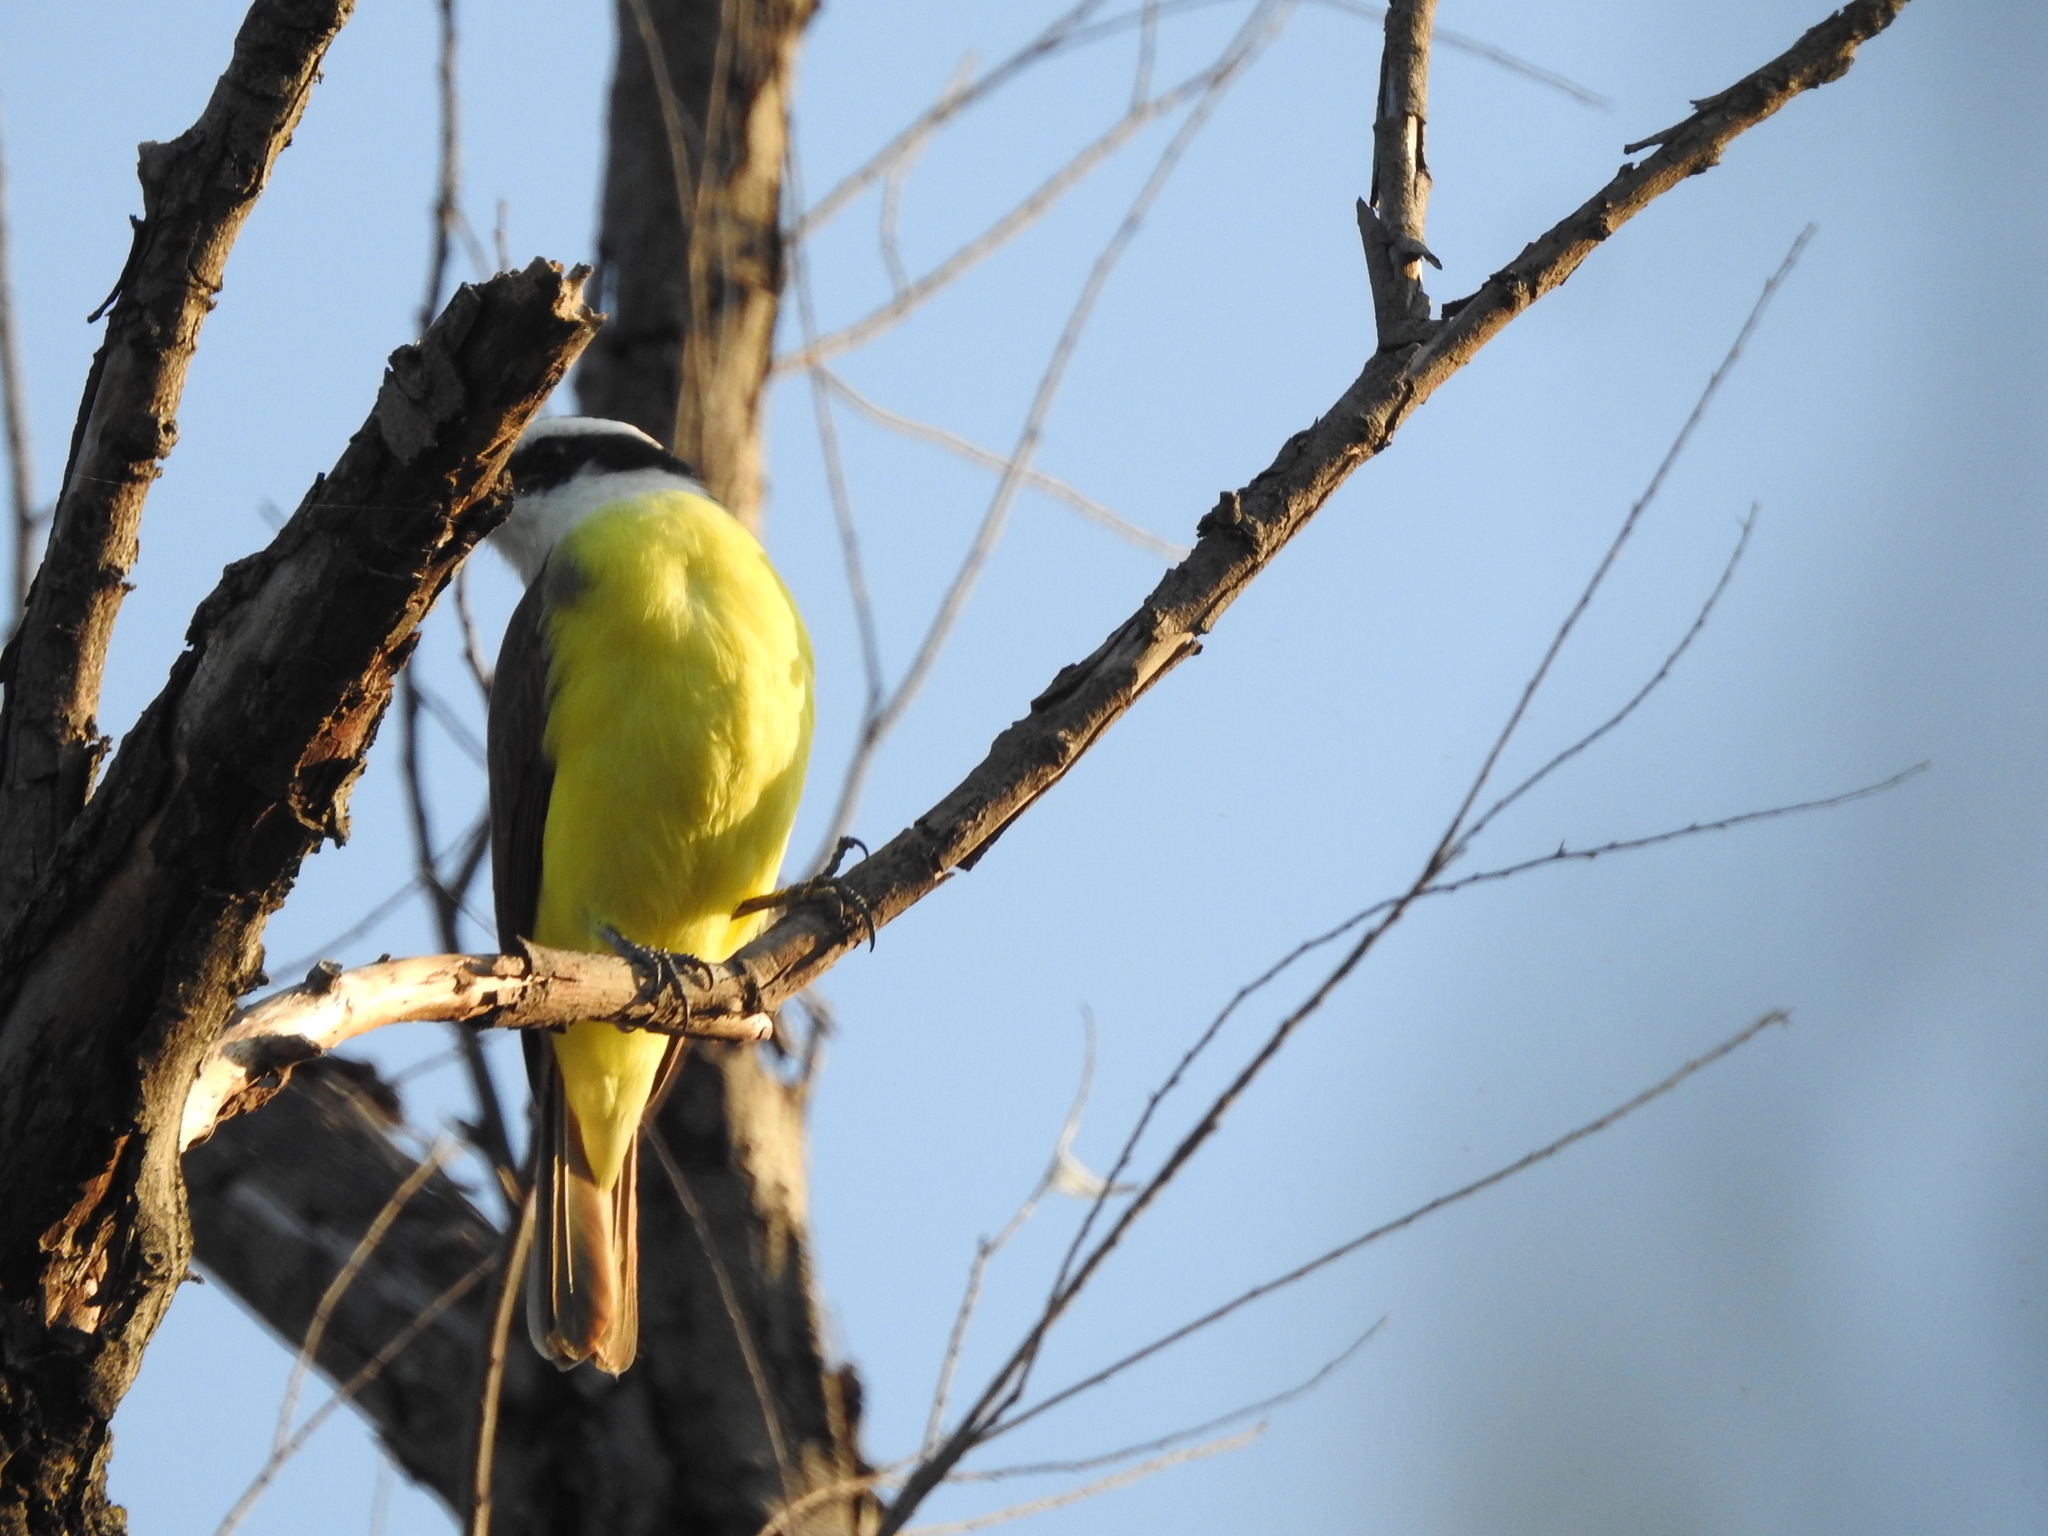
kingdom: Animalia
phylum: Chordata
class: Aves
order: Passeriformes
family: Tyrannidae
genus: Pitangus
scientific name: Pitangus sulphuratus
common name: Great kiskadee
